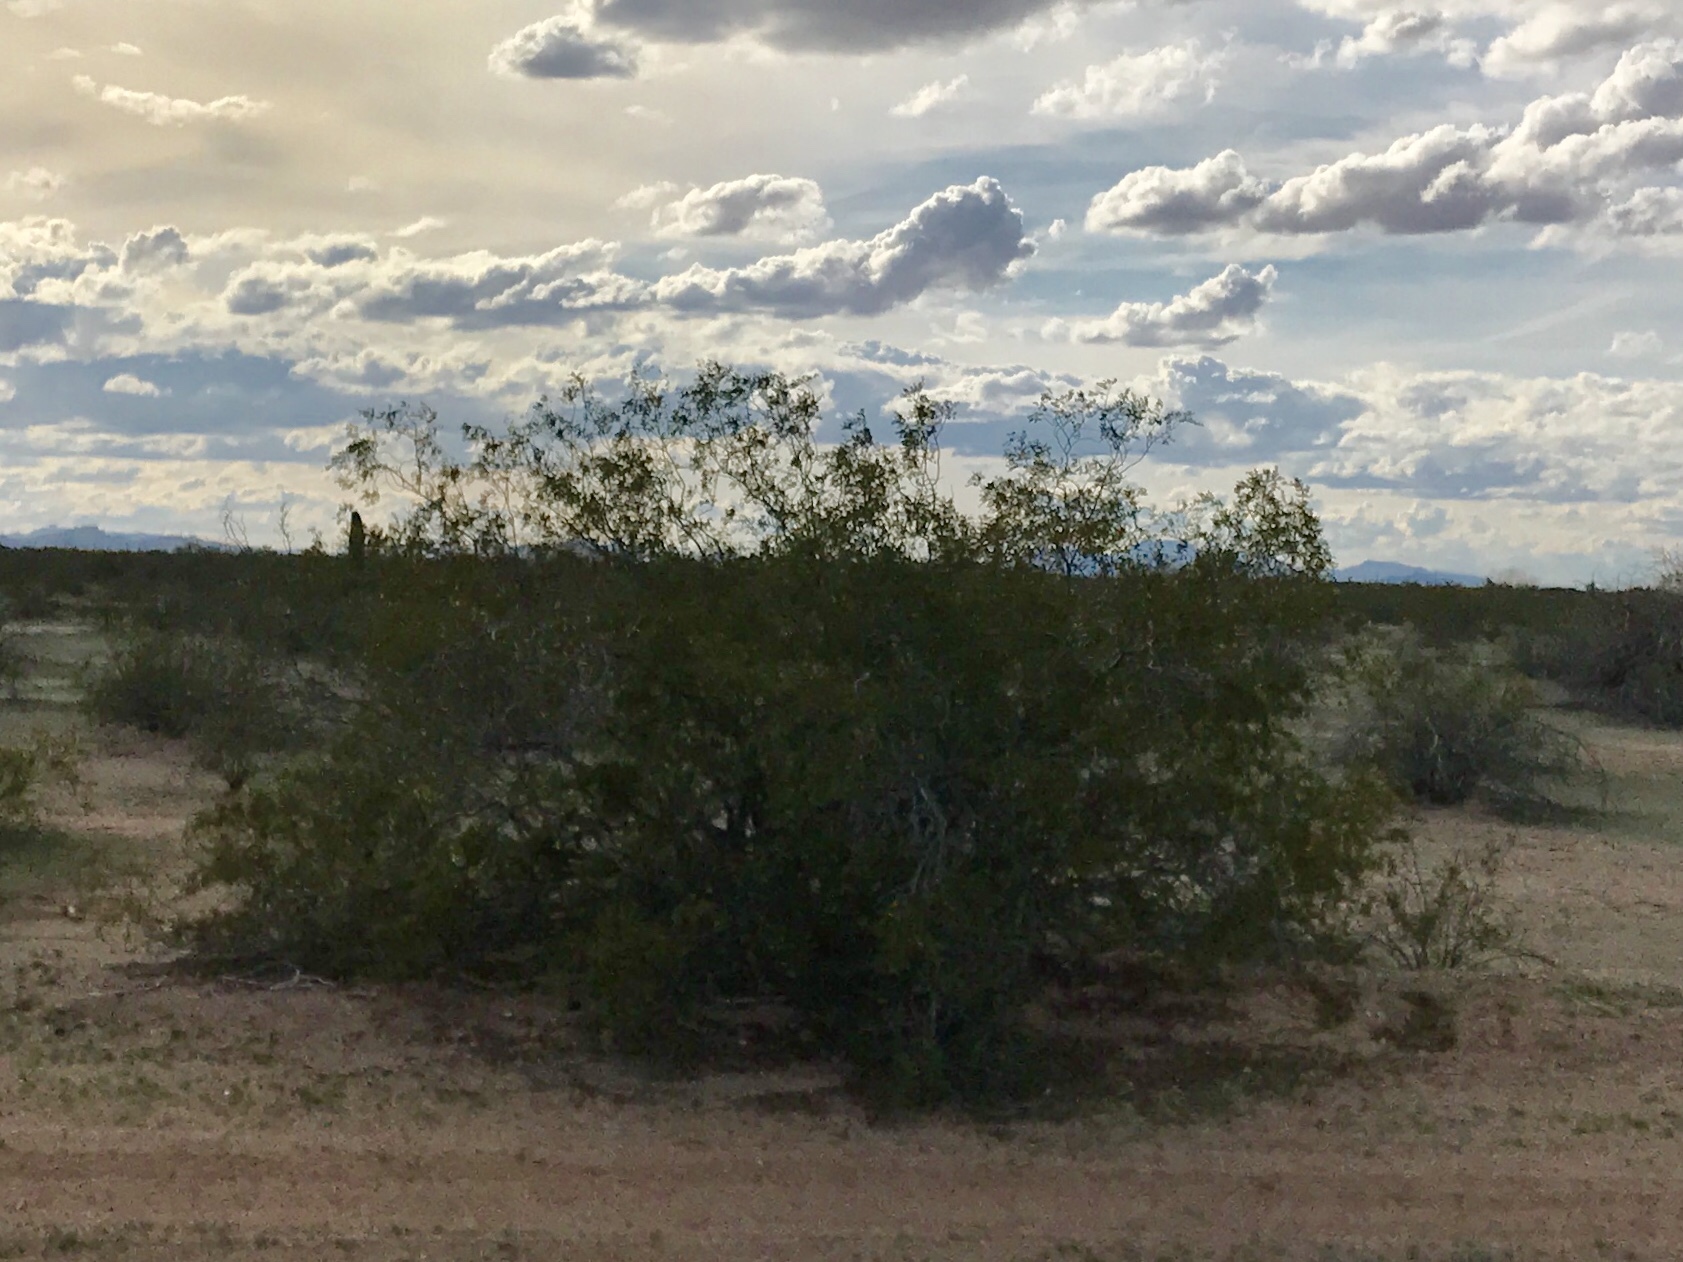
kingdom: Plantae
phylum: Tracheophyta
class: Magnoliopsida
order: Zygophyllales
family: Zygophyllaceae
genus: Larrea
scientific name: Larrea tridentata
